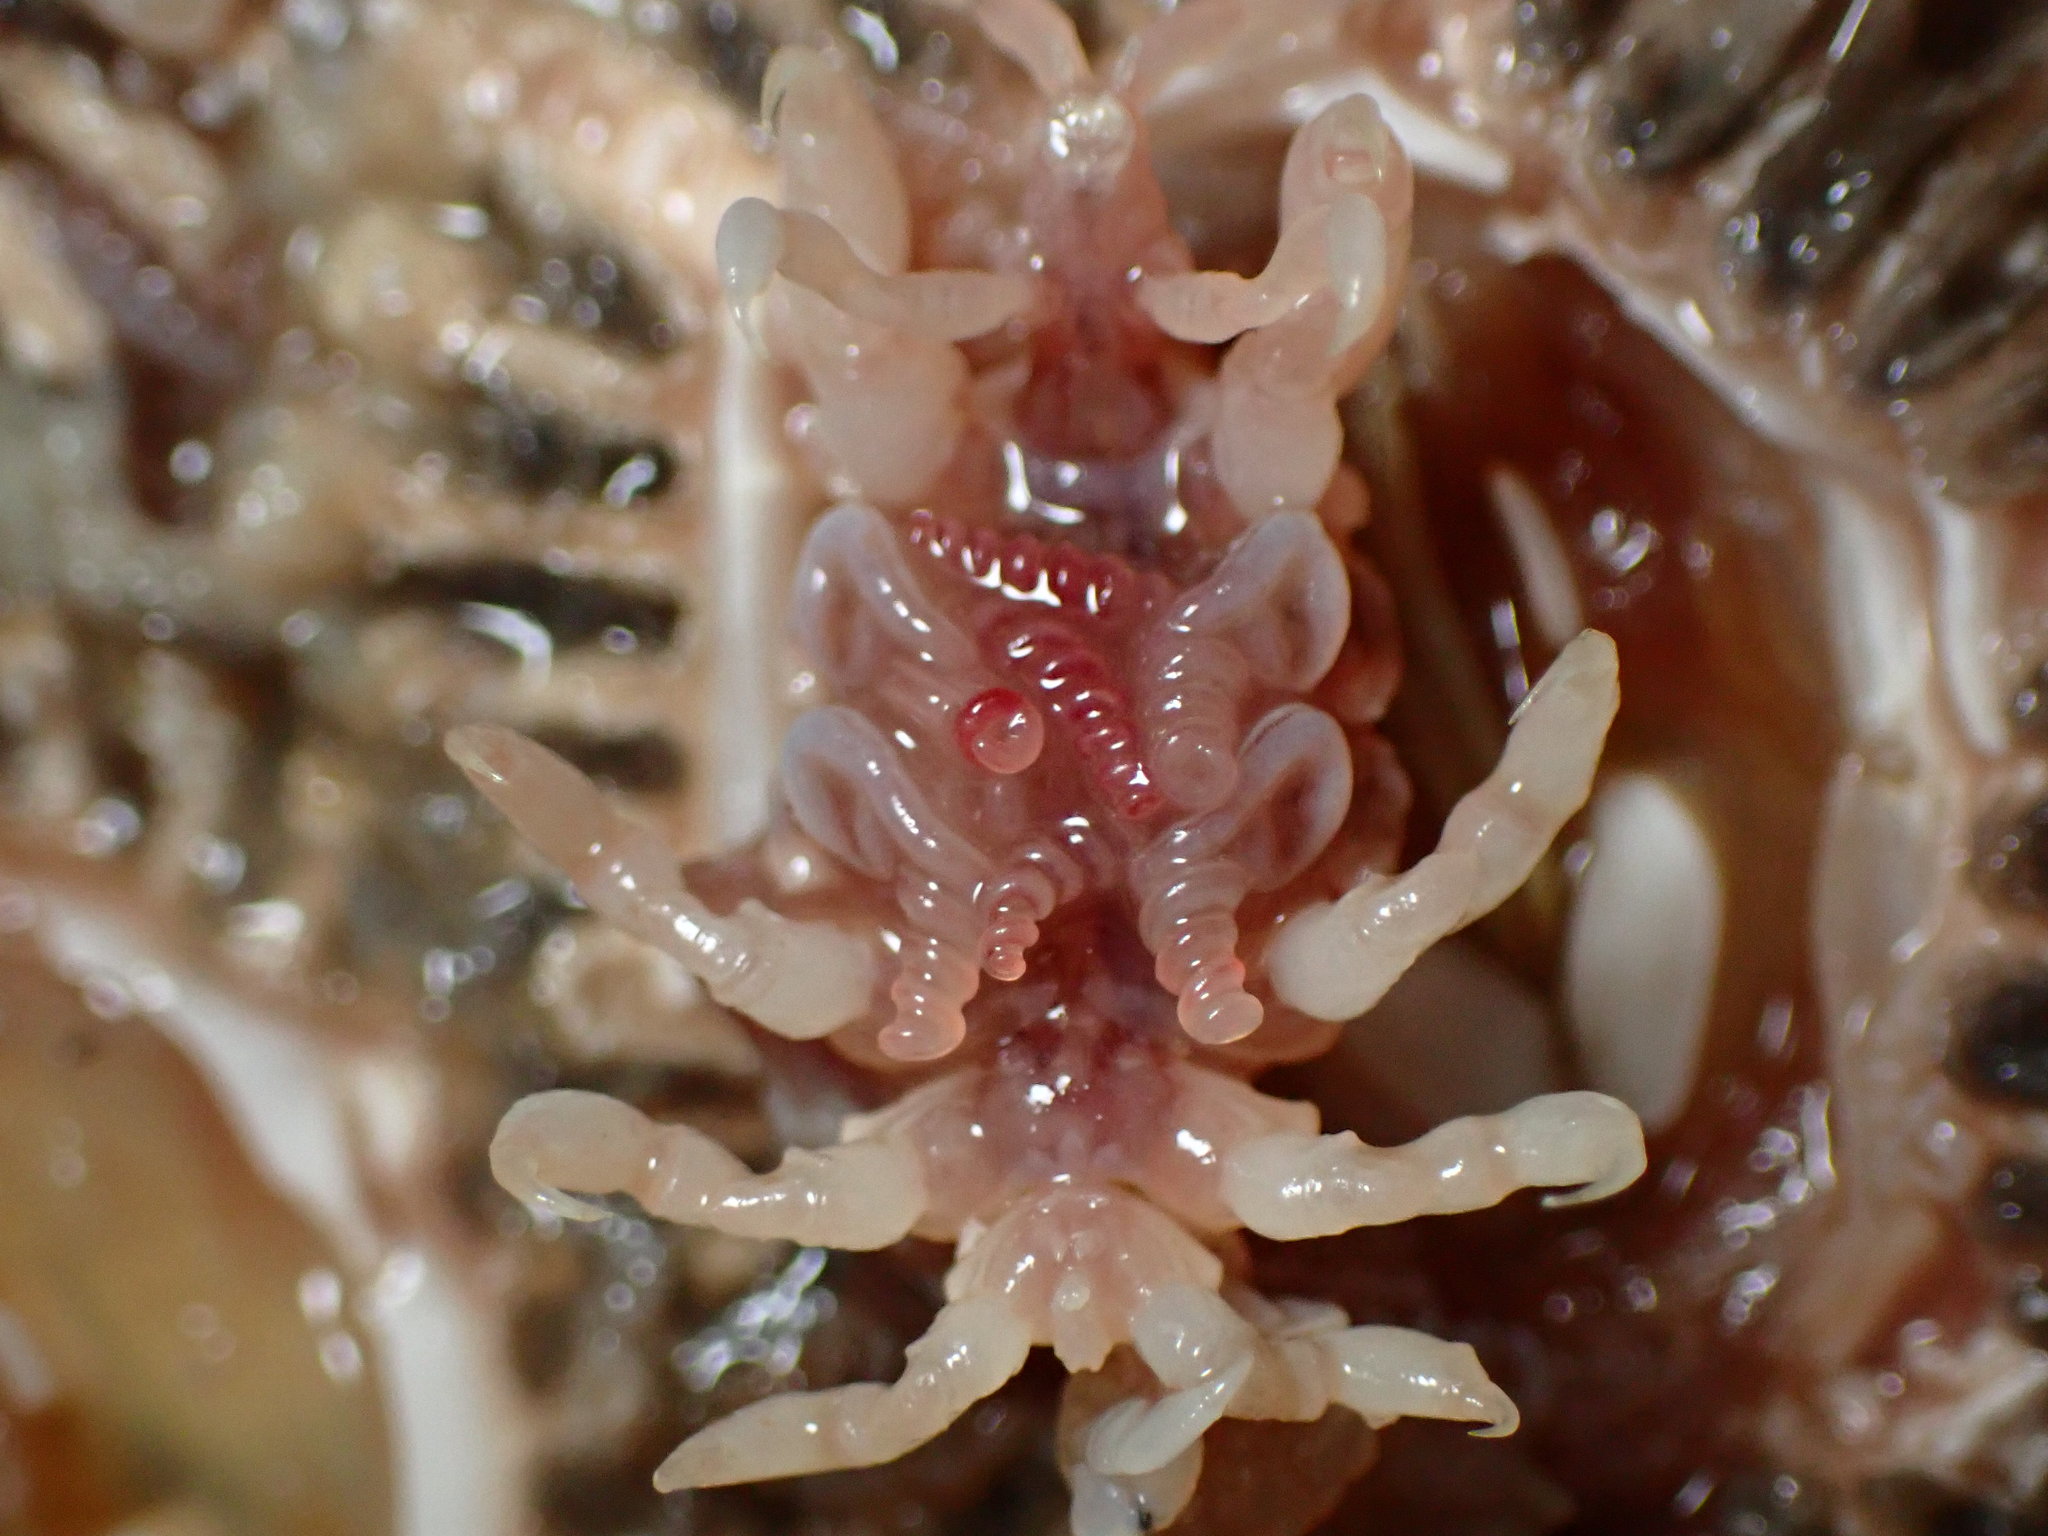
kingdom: Animalia
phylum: Arthropoda
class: Malacostraca
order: Amphipoda
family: Cyamidae
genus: Cyamus
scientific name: Cyamus scammoni
